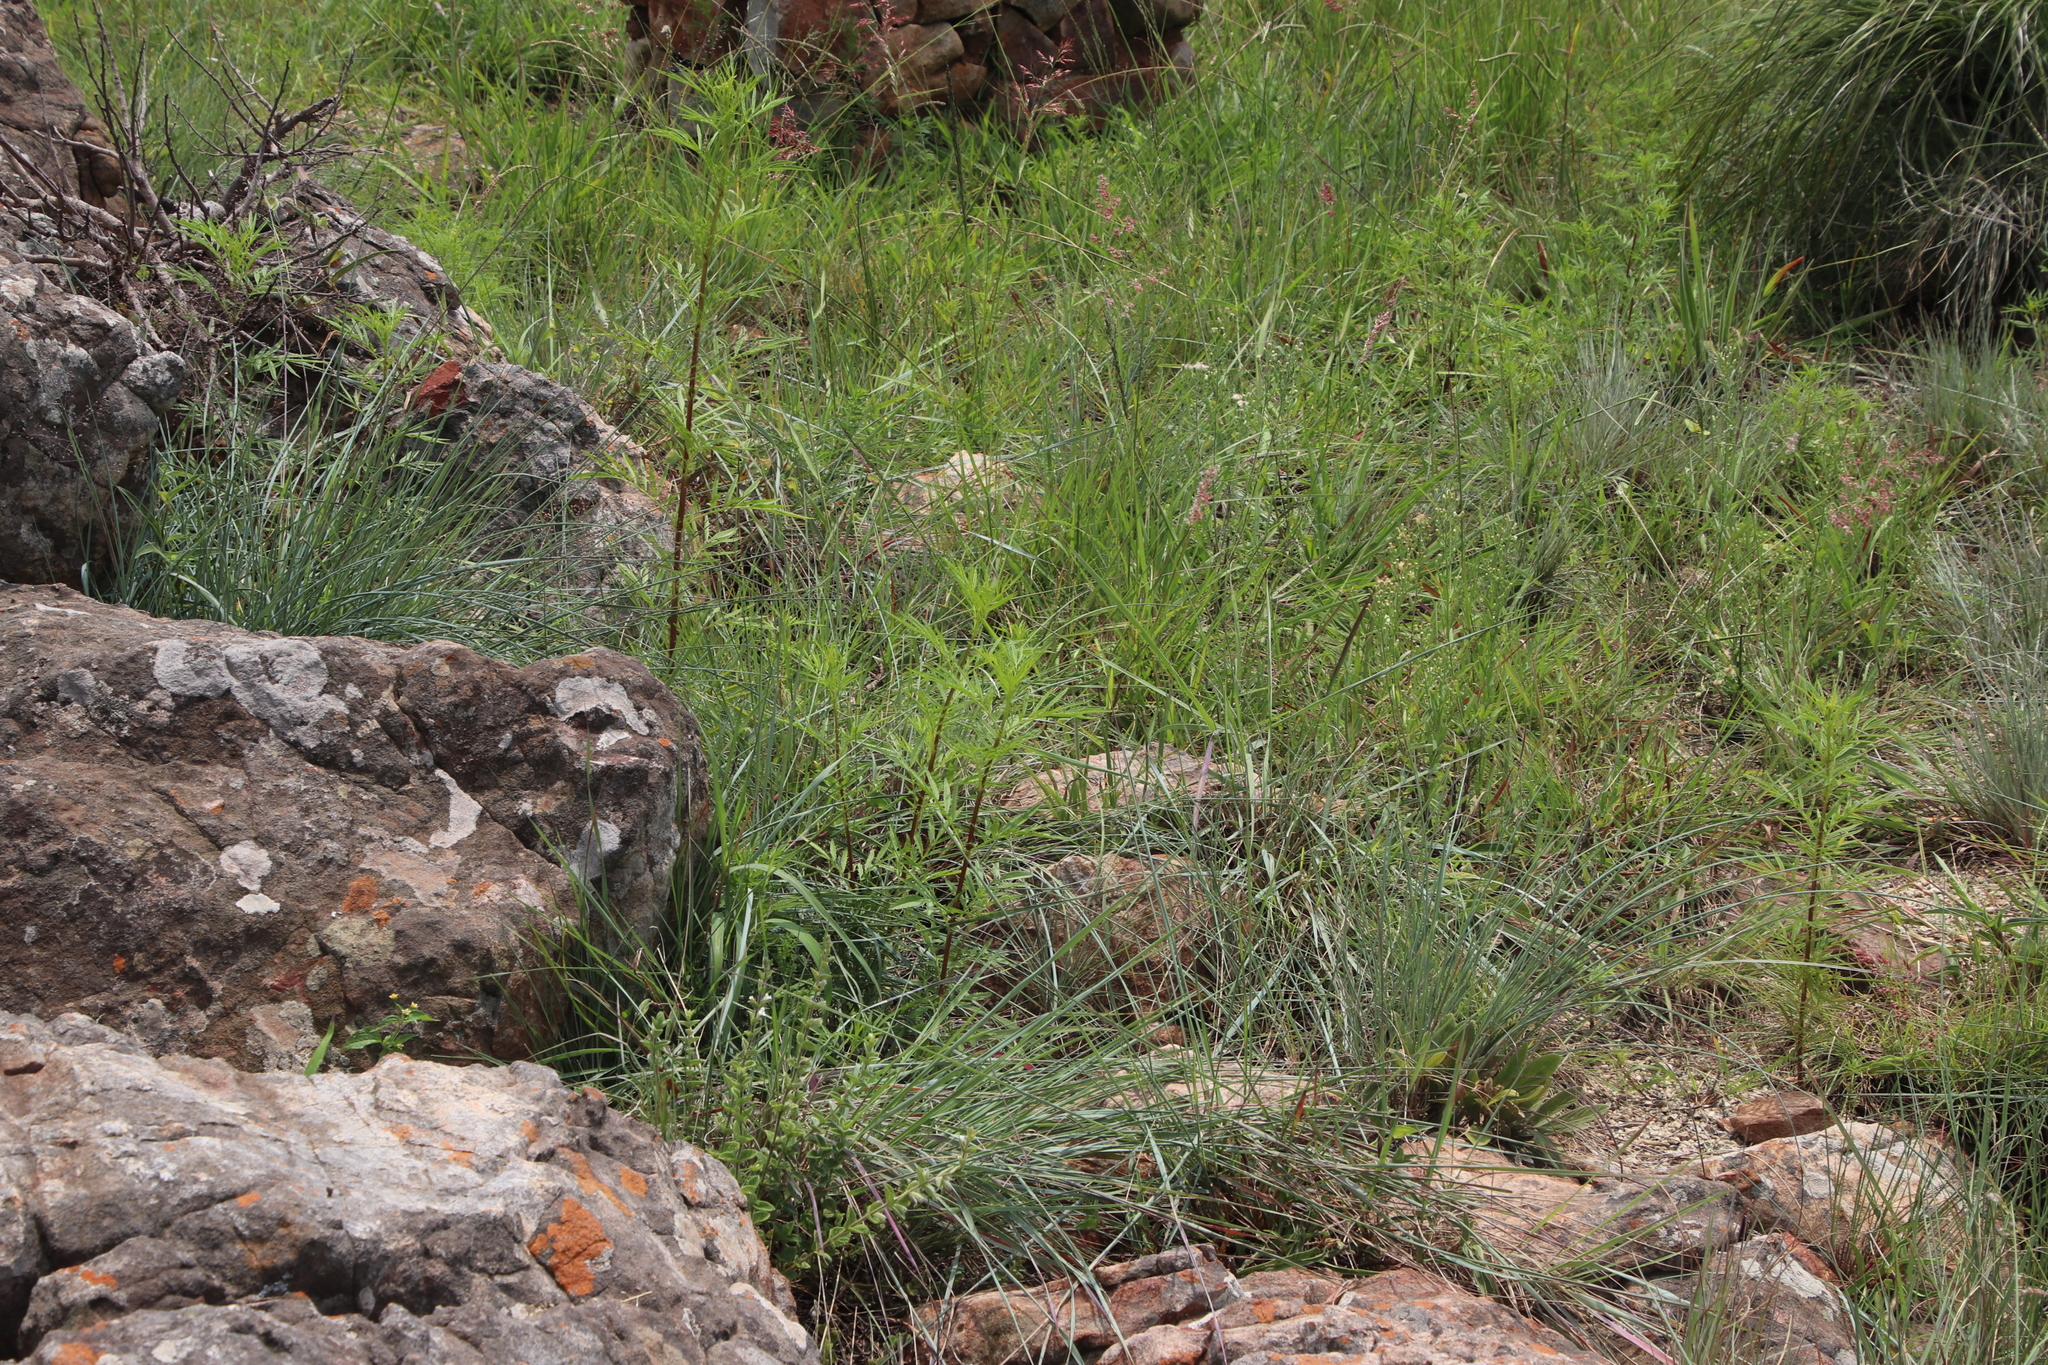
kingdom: Plantae
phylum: Tracheophyta
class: Magnoliopsida
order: Asterales
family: Asteraceae
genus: Tagetes
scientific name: Tagetes minuta
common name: Muster john henry
